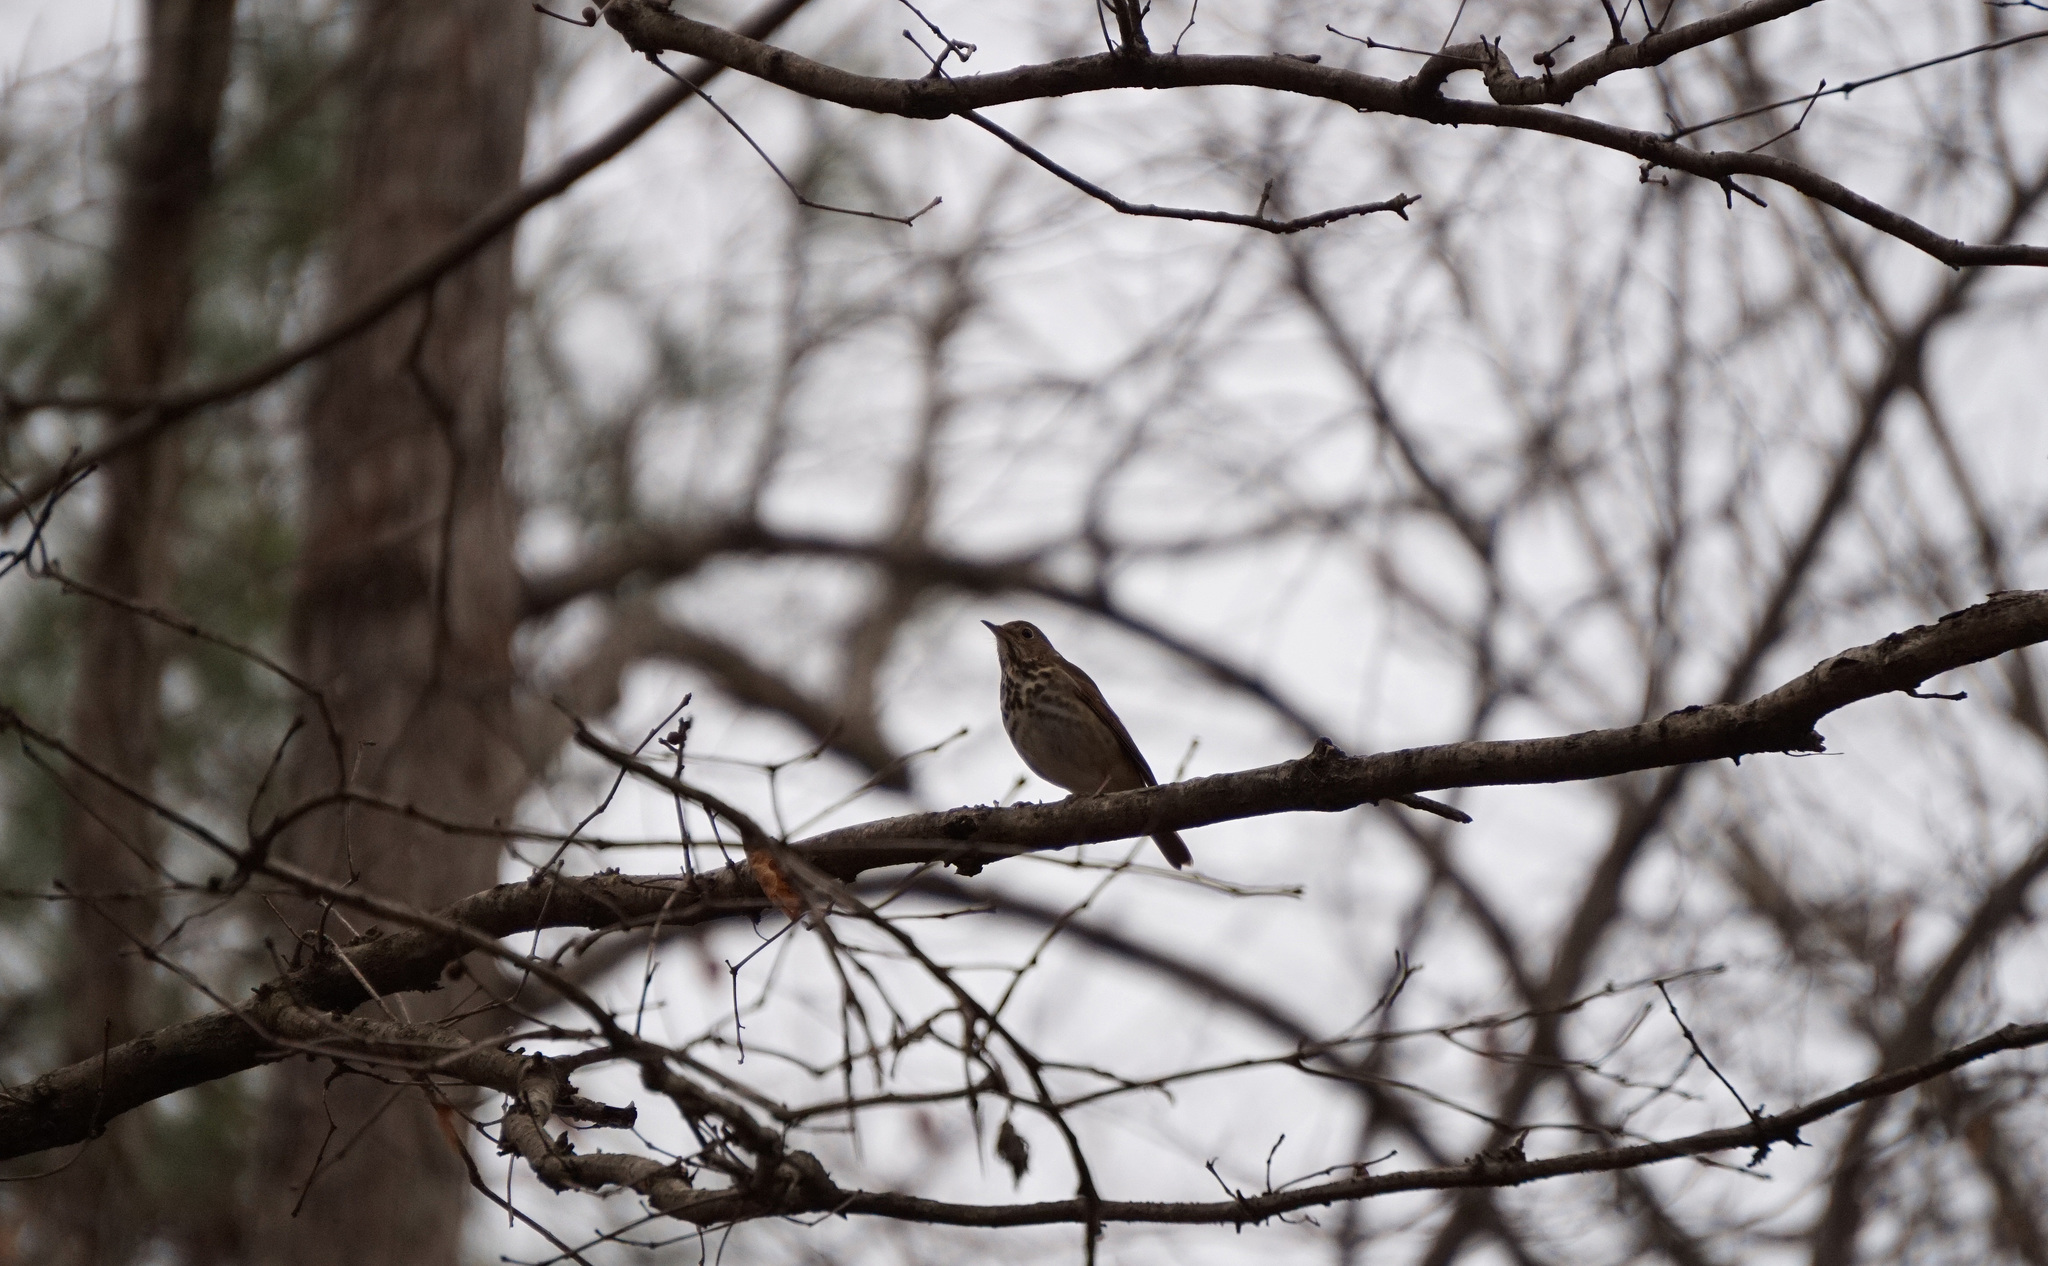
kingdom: Animalia
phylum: Chordata
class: Aves
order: Passeriformes
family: Turdidae
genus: Catharus
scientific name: Catharus guttatus
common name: Hermit thrush
